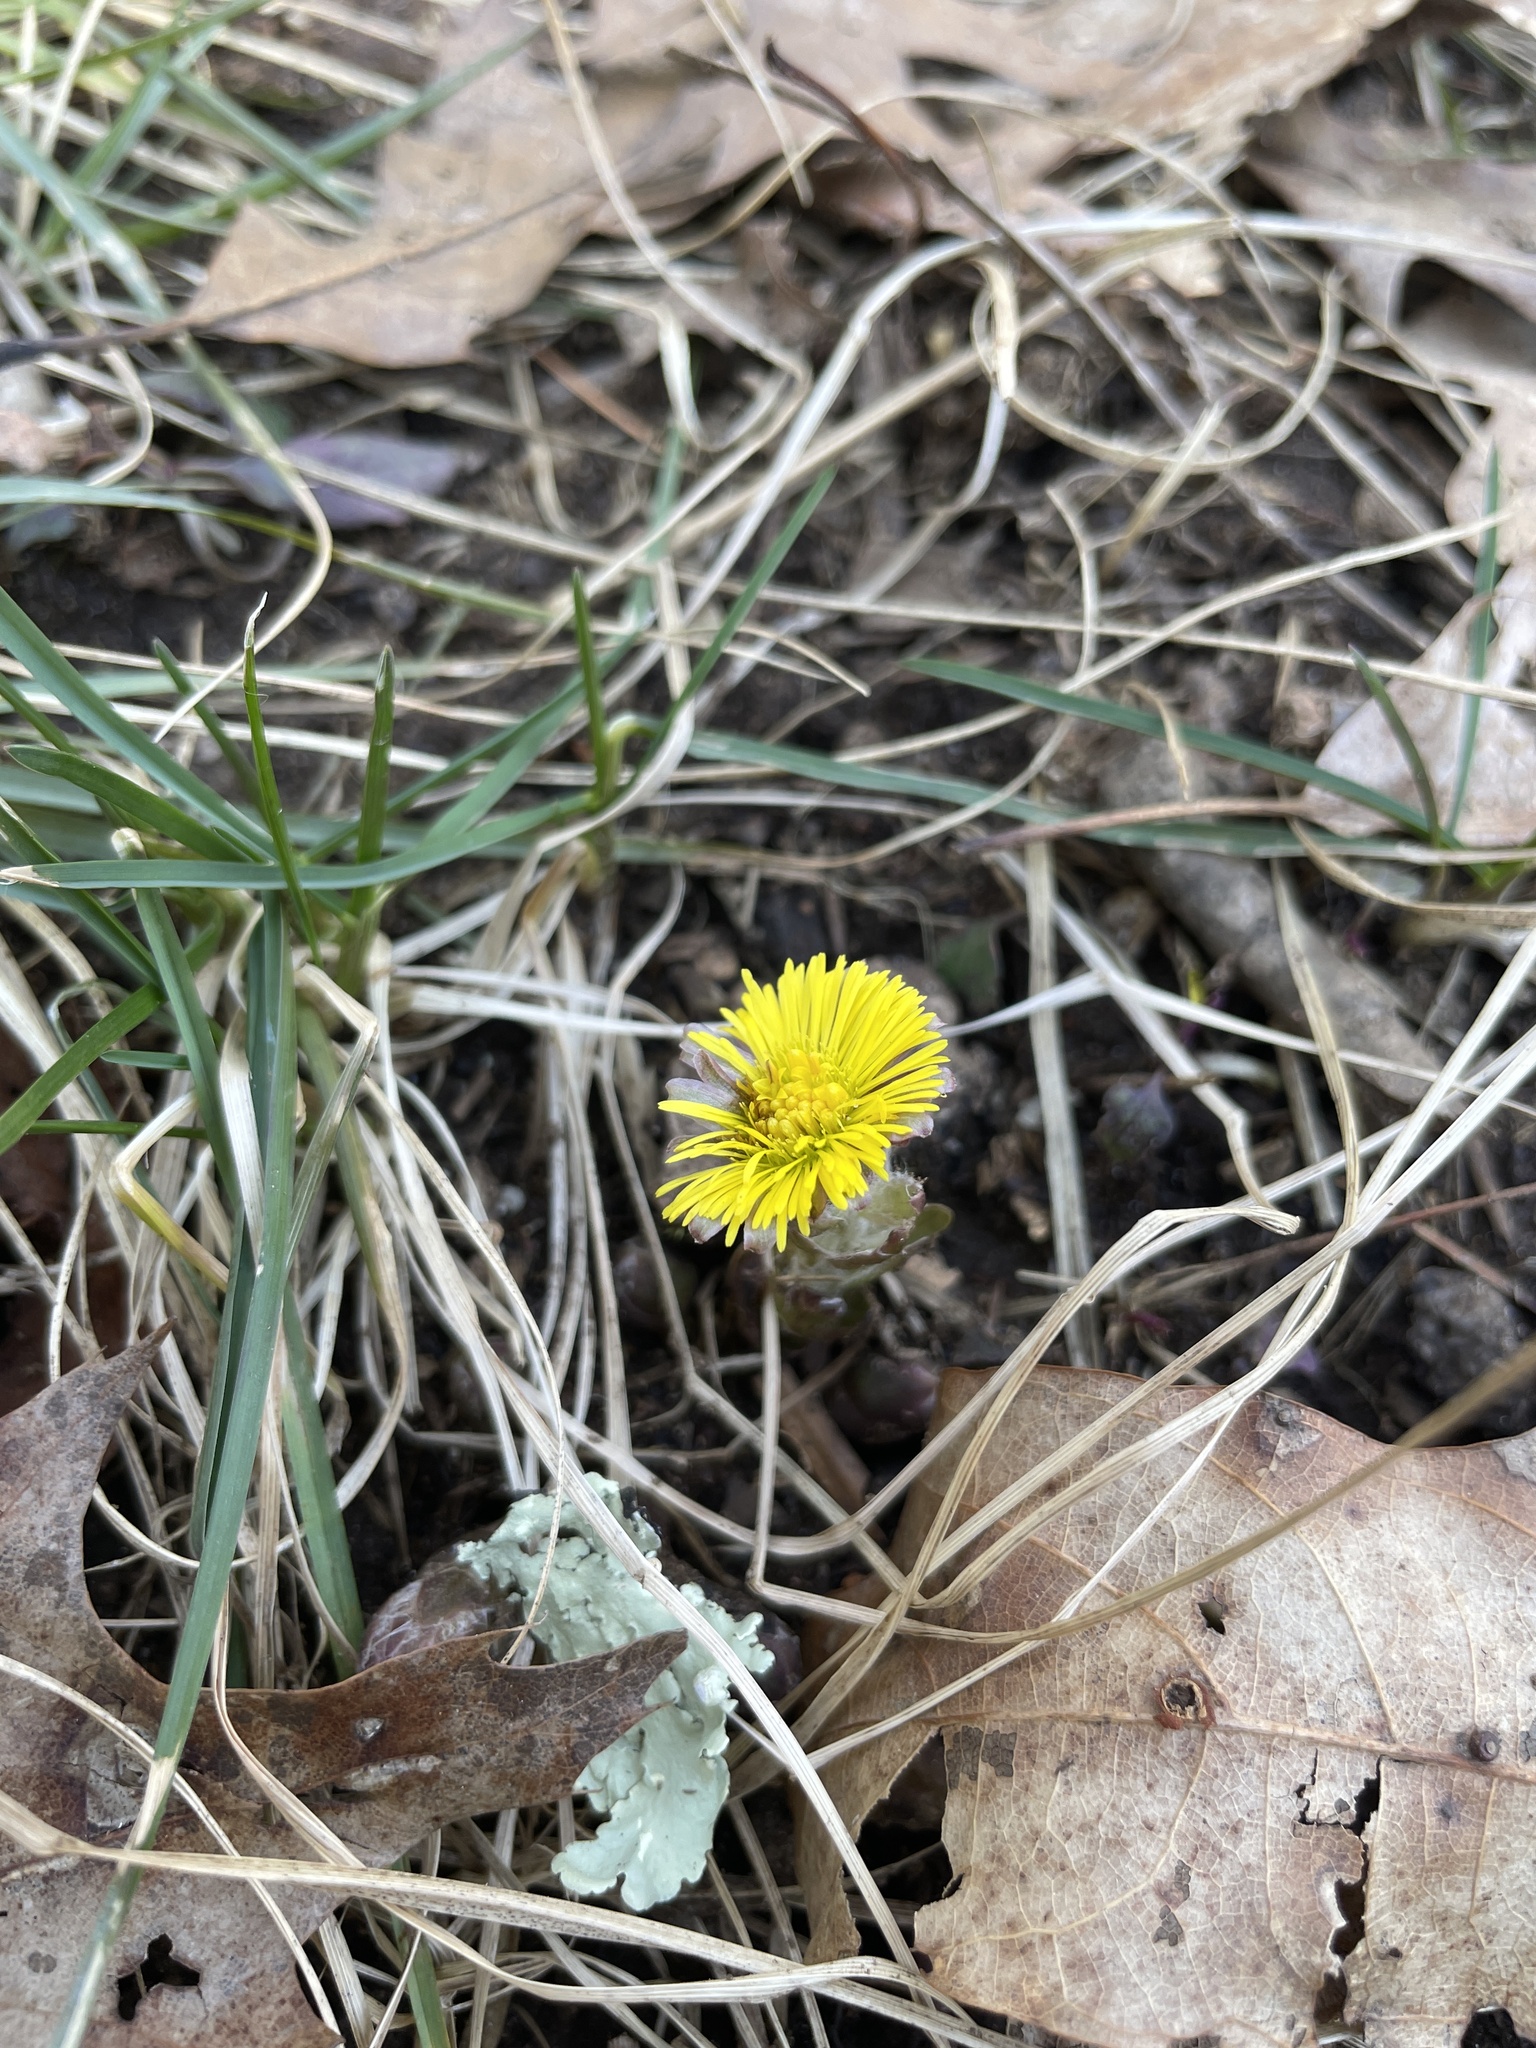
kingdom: Plantae
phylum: Tracheophyta
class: Magnoliopsida
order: Asterales
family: Asteraceae
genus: Tussilago
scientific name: Tussilago farfara
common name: Coltsfoot
